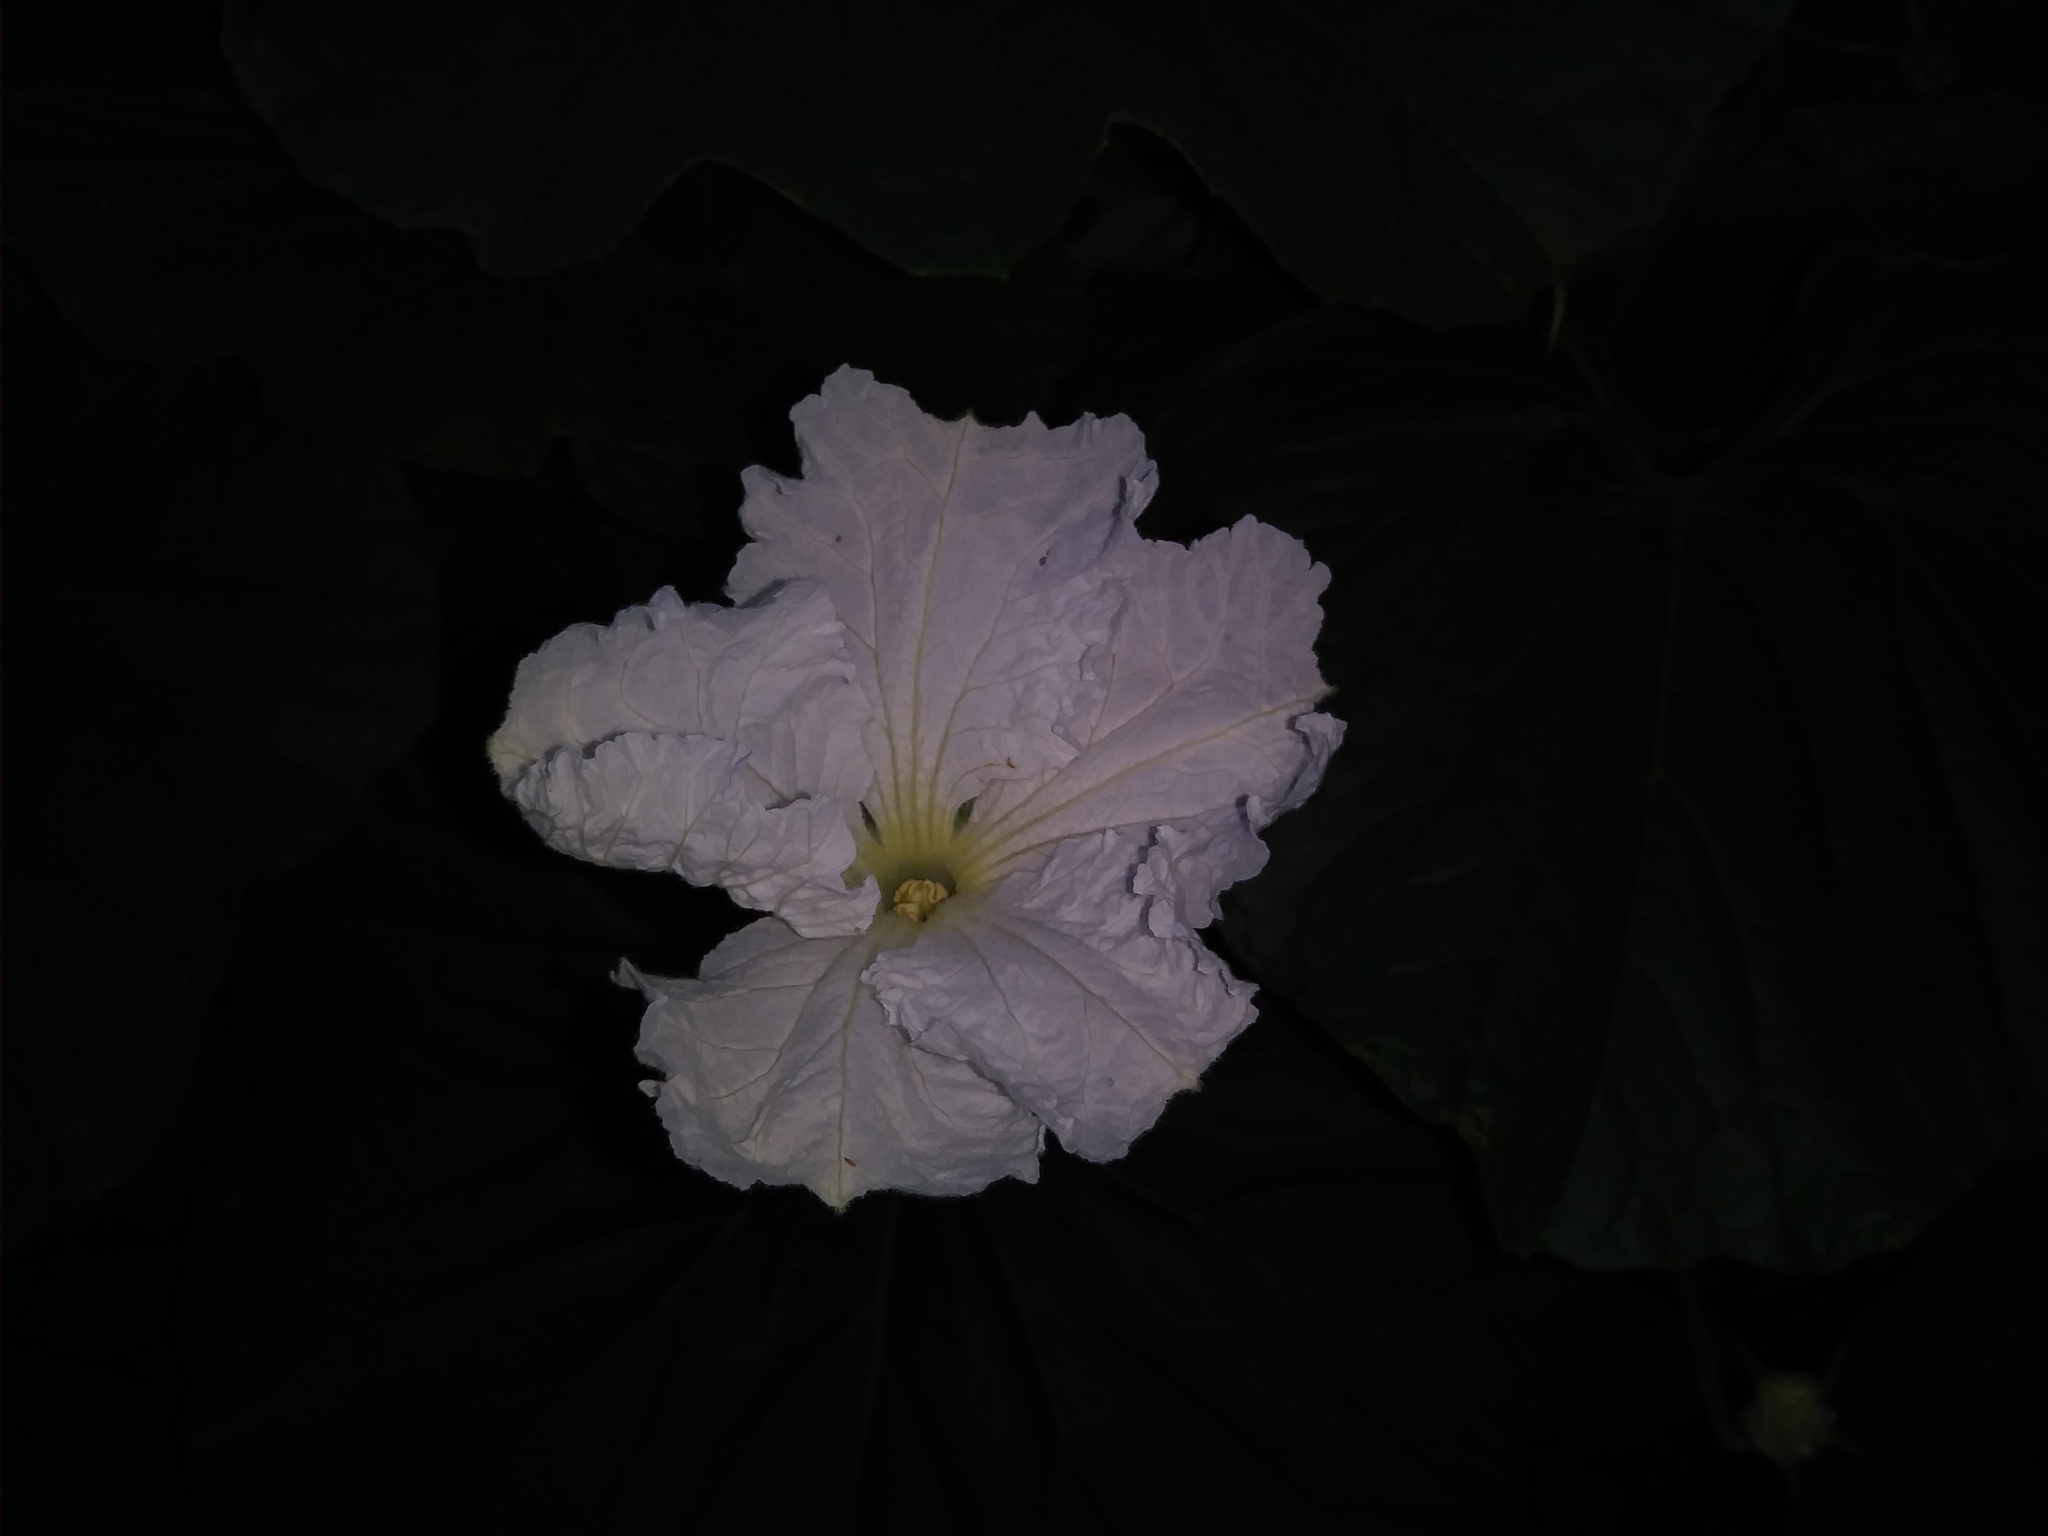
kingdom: Plantae
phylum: Tracheophyta
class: Magnoliopsida
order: Cucurbitales
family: Cucurbitaceae
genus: Lagenaria
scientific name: Lagenaria siceraria
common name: Bottle gourd
